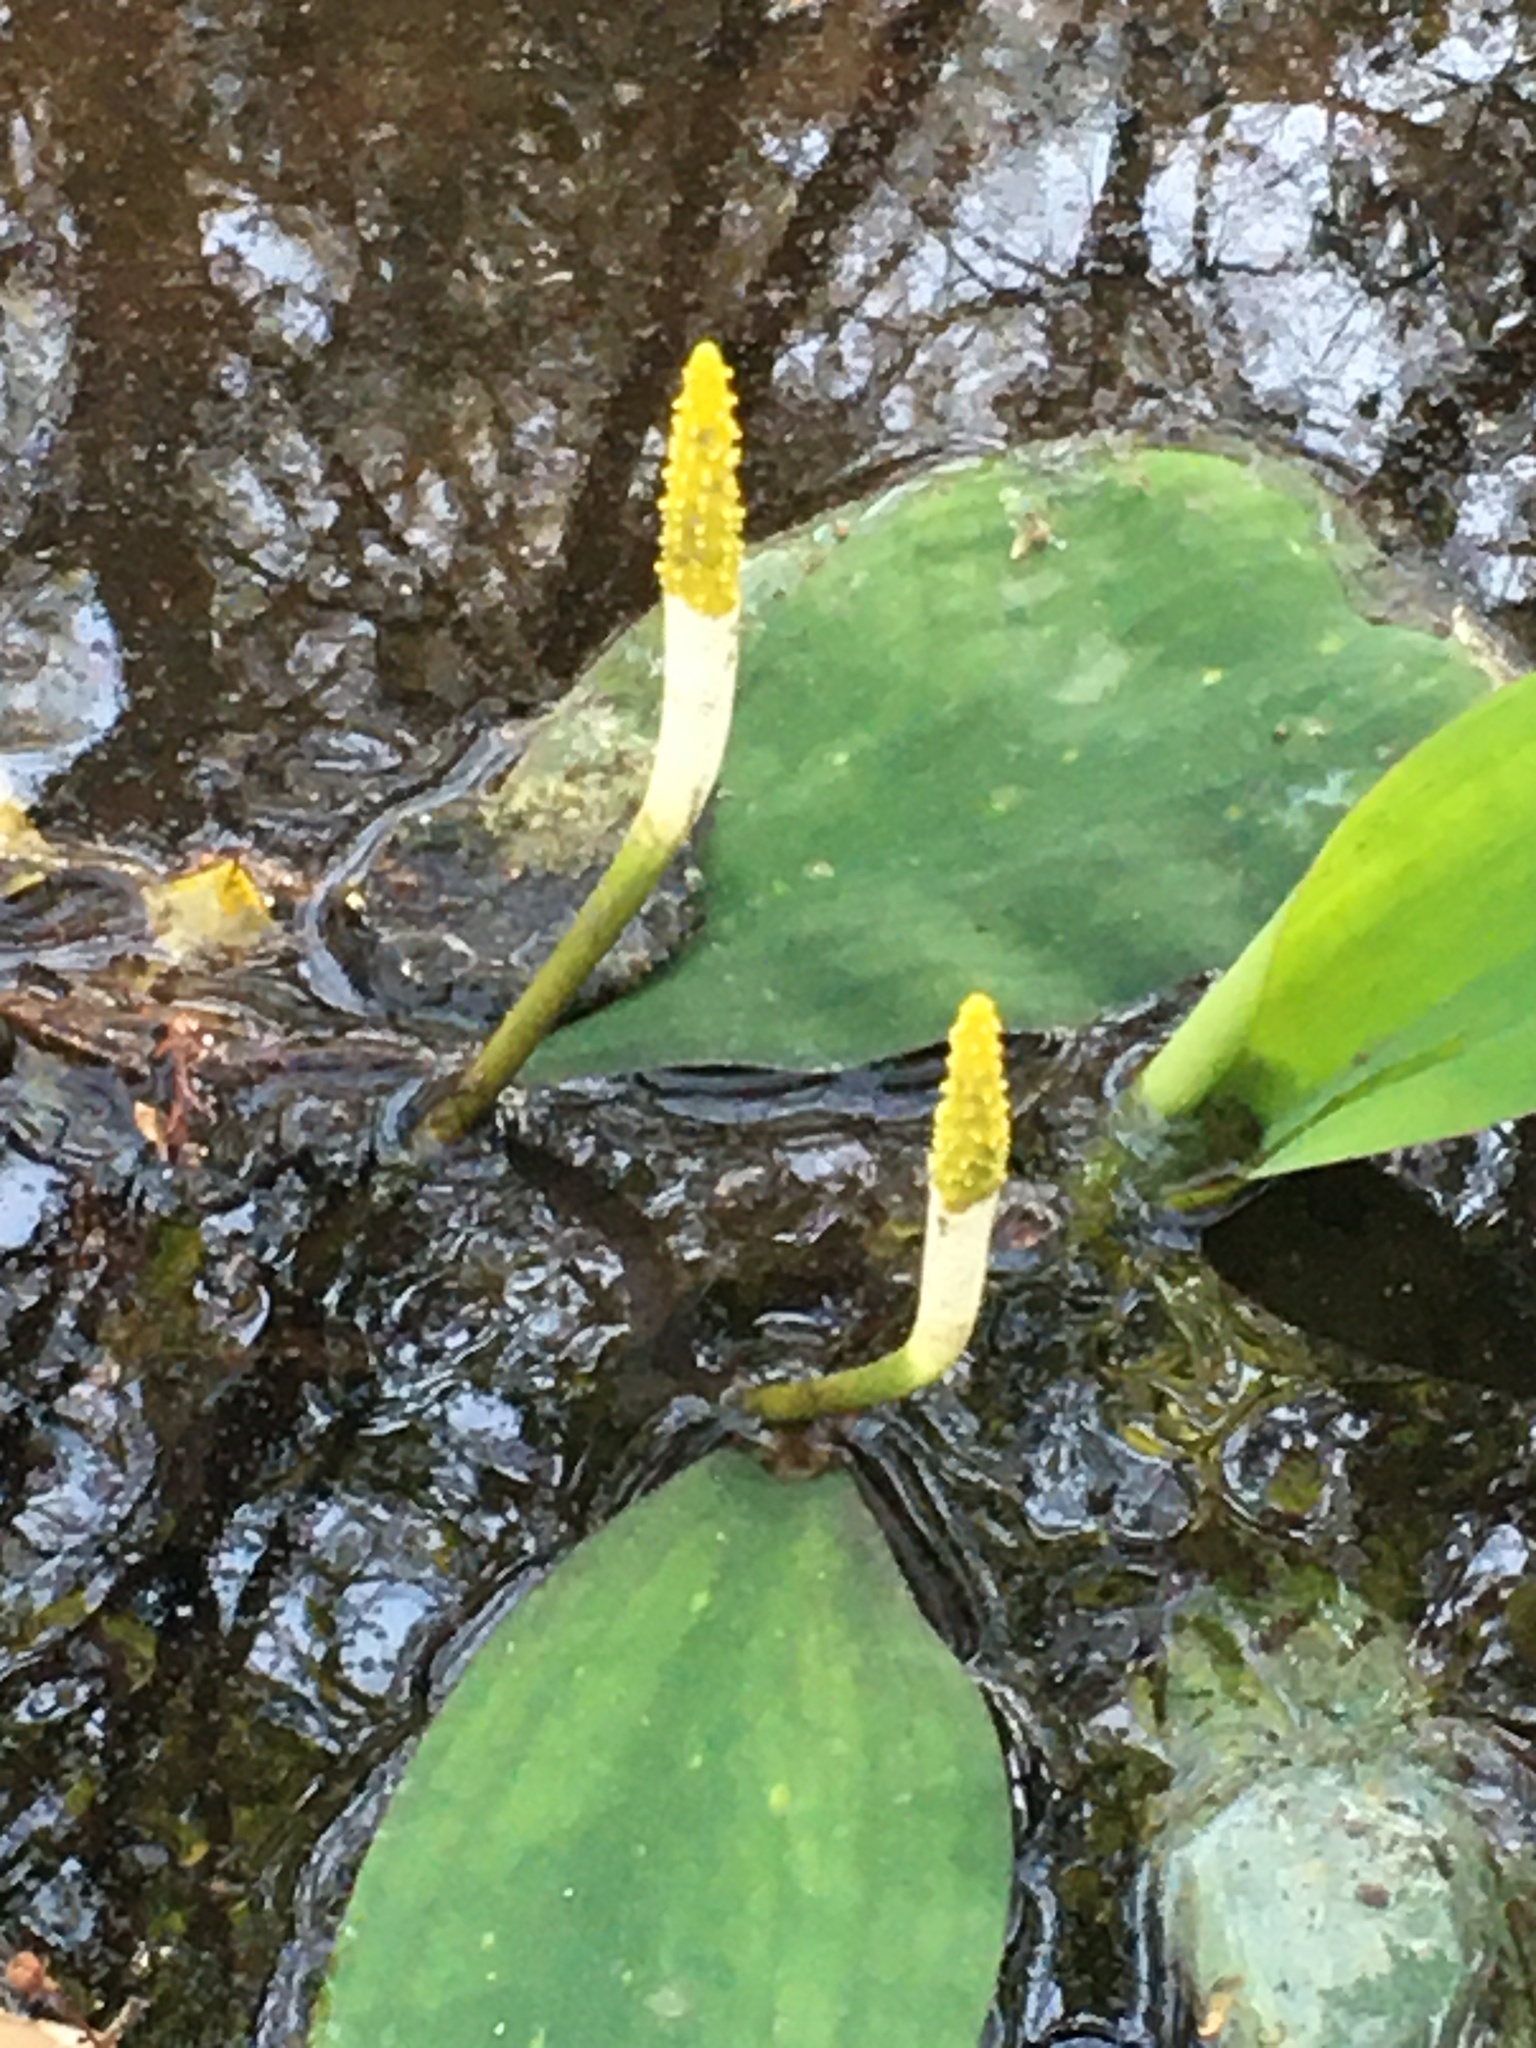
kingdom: Plantae
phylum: Tracheophyta
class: Liliopsida
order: Alismatales
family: Araceae
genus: Orontium
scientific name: Orontium aquaticum
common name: Golden-club
